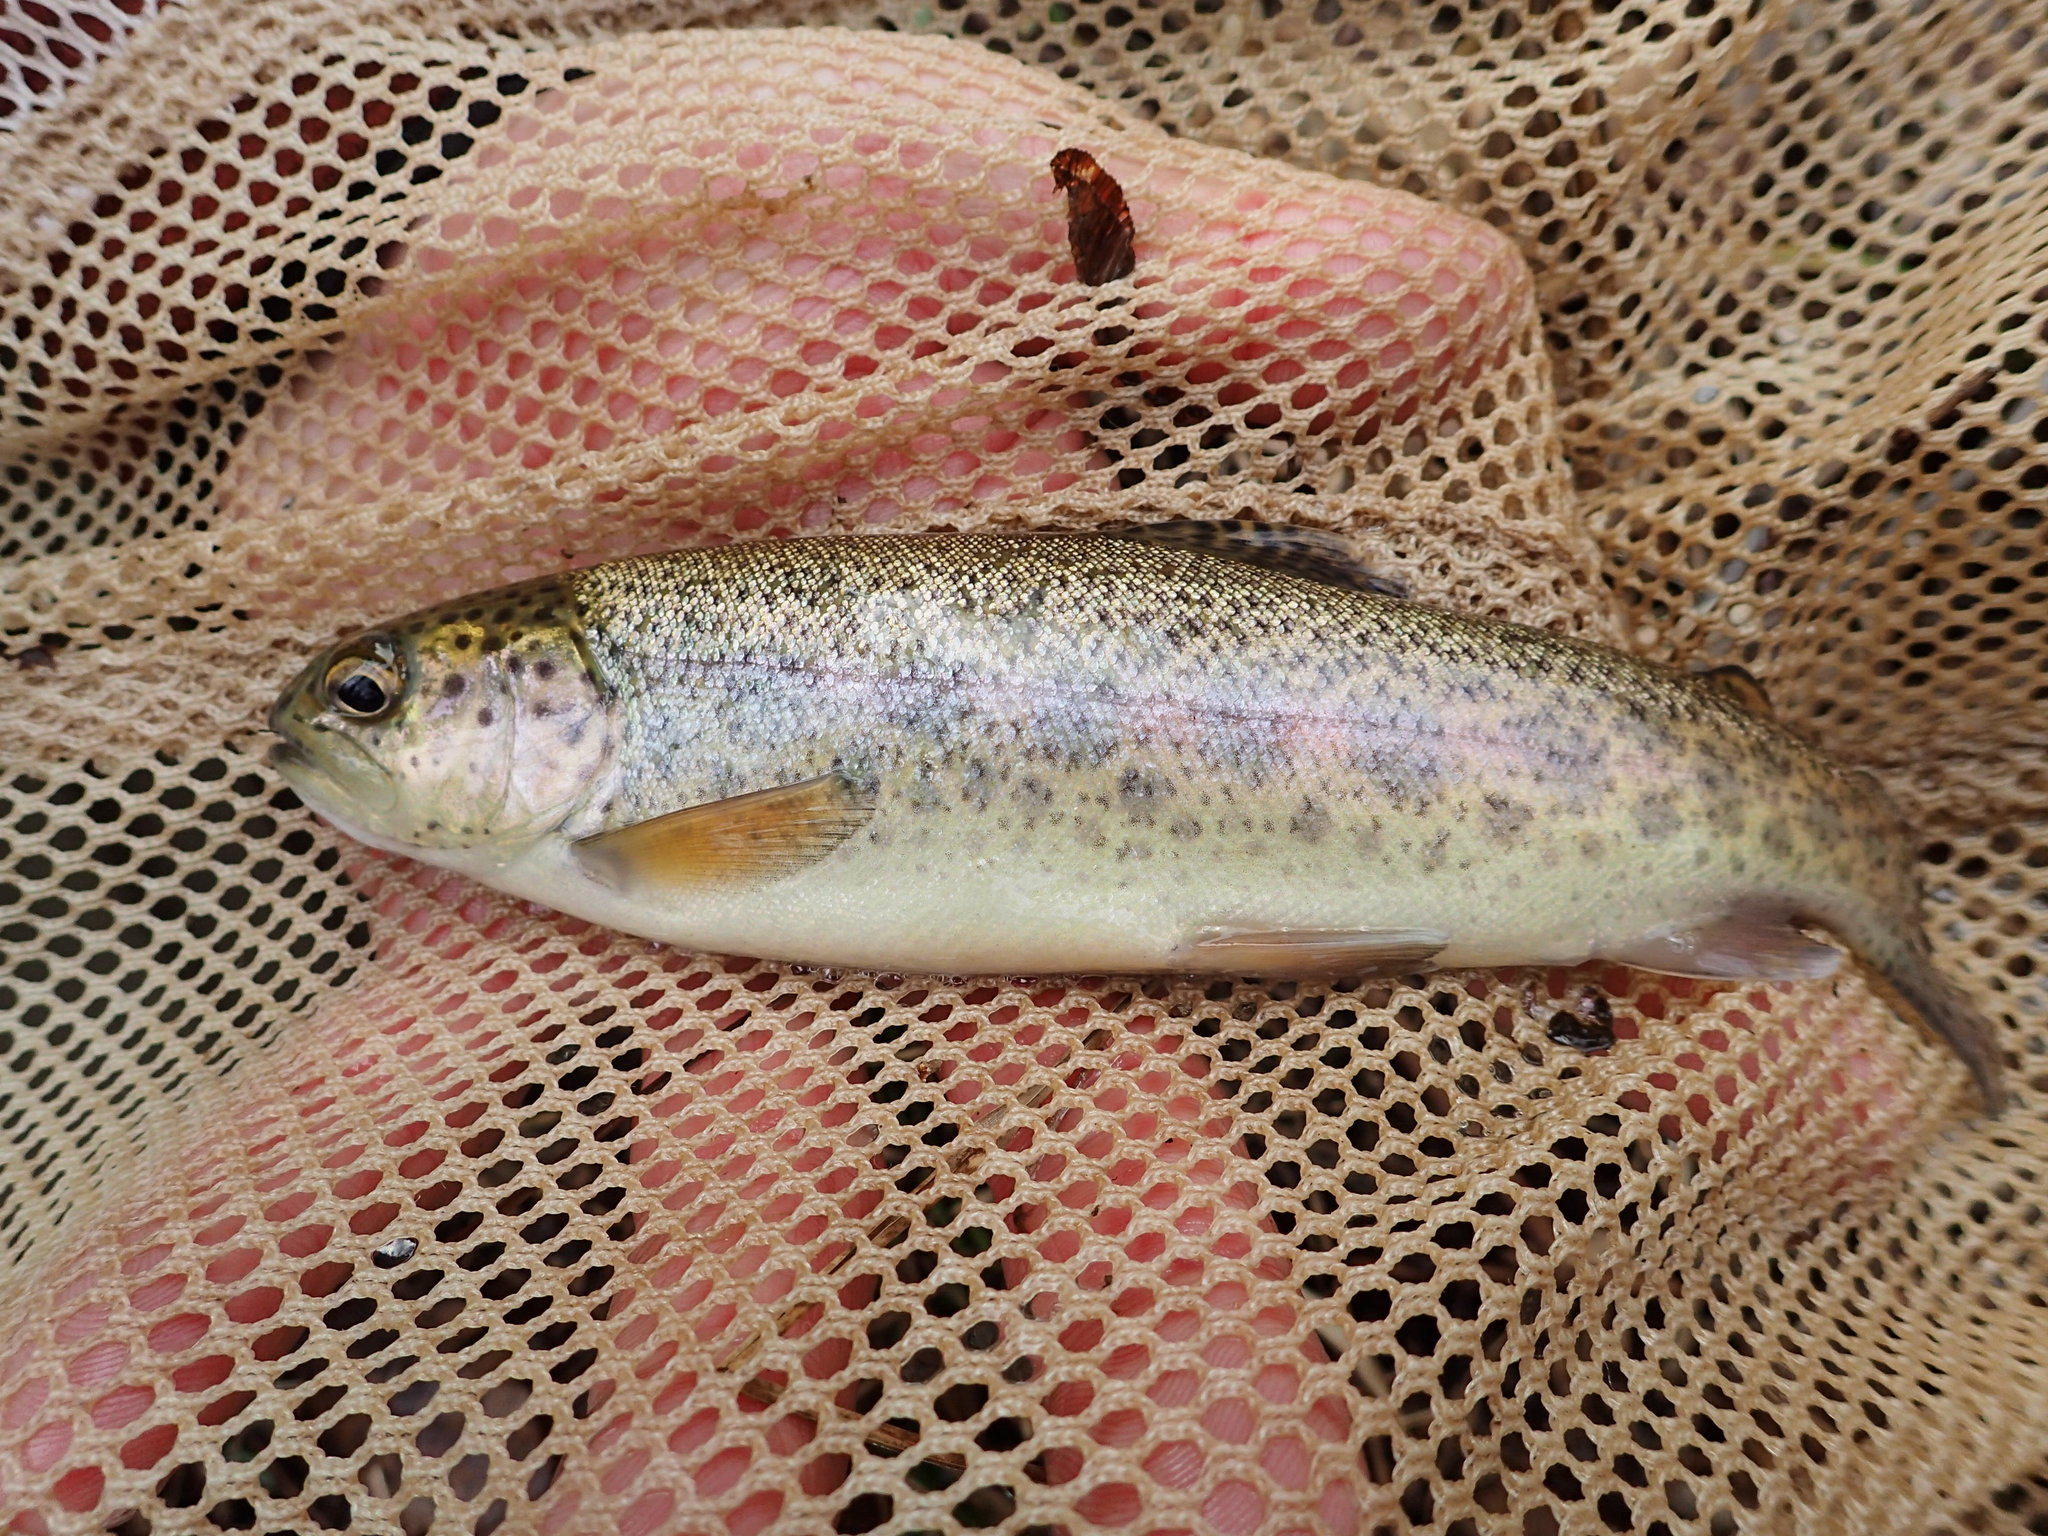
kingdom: Animalia
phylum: Chordata
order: Salmoniformes
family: Salmonidae
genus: Oncorhynchus
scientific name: Oncorhynchus mykiss
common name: Rainbow trout
